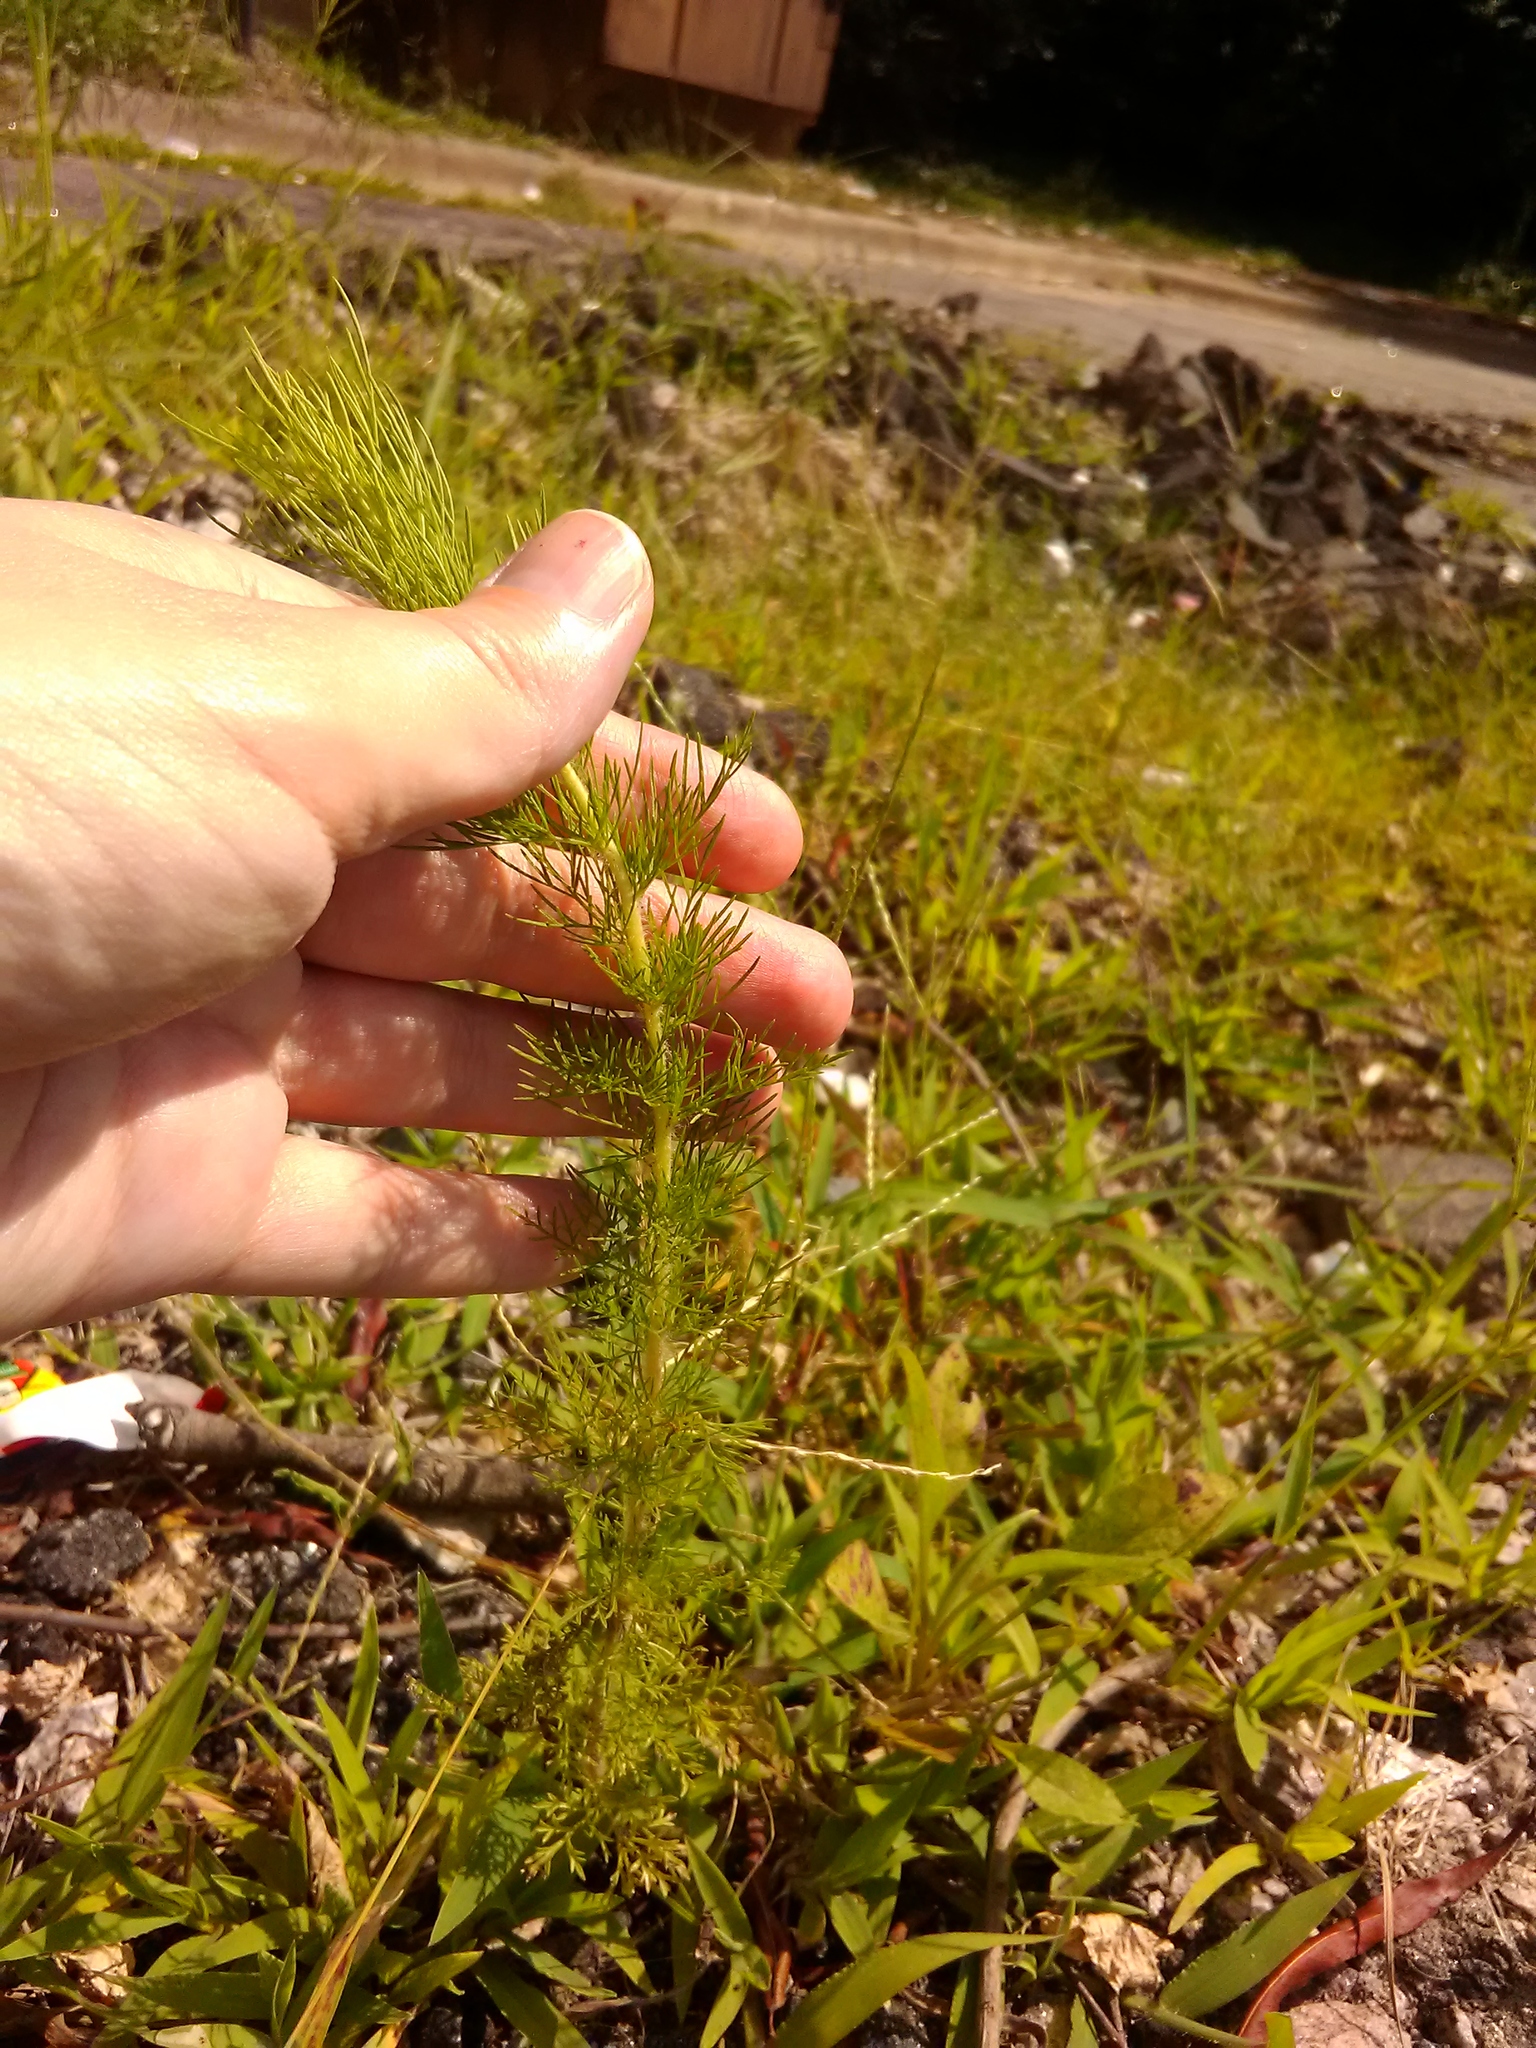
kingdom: Plantae
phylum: Tracheophyta
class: Magnoliopsida
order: Asterales
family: Asteraceae
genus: Eupatorium
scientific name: Eupatorium capillifolium
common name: Dog-fennel
